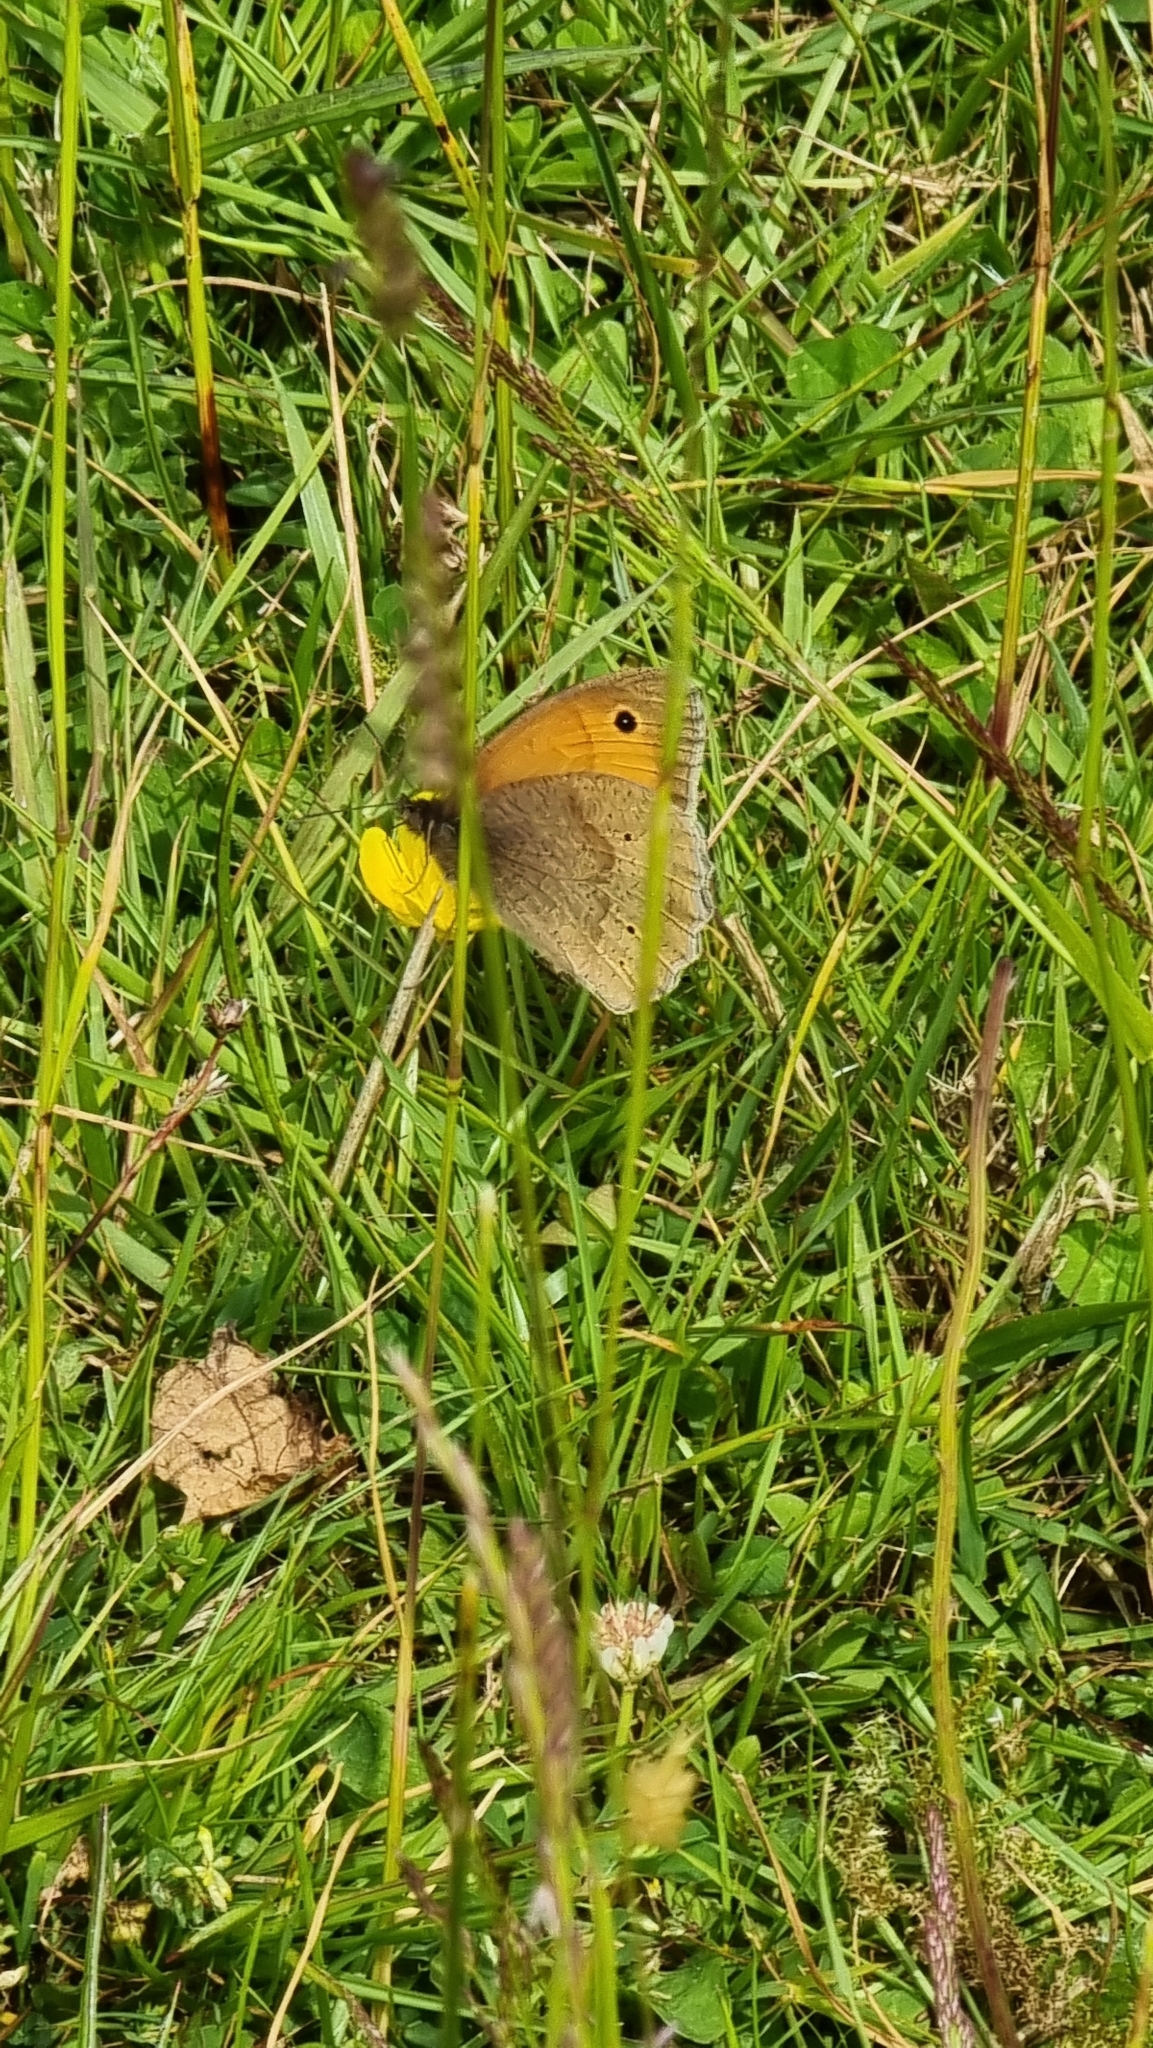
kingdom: Animalia
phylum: Arthropoda
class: Insecta
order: Lepidoptera
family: Nymphalidae
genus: Maniola
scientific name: Maniola jurtina
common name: Meadow brown
